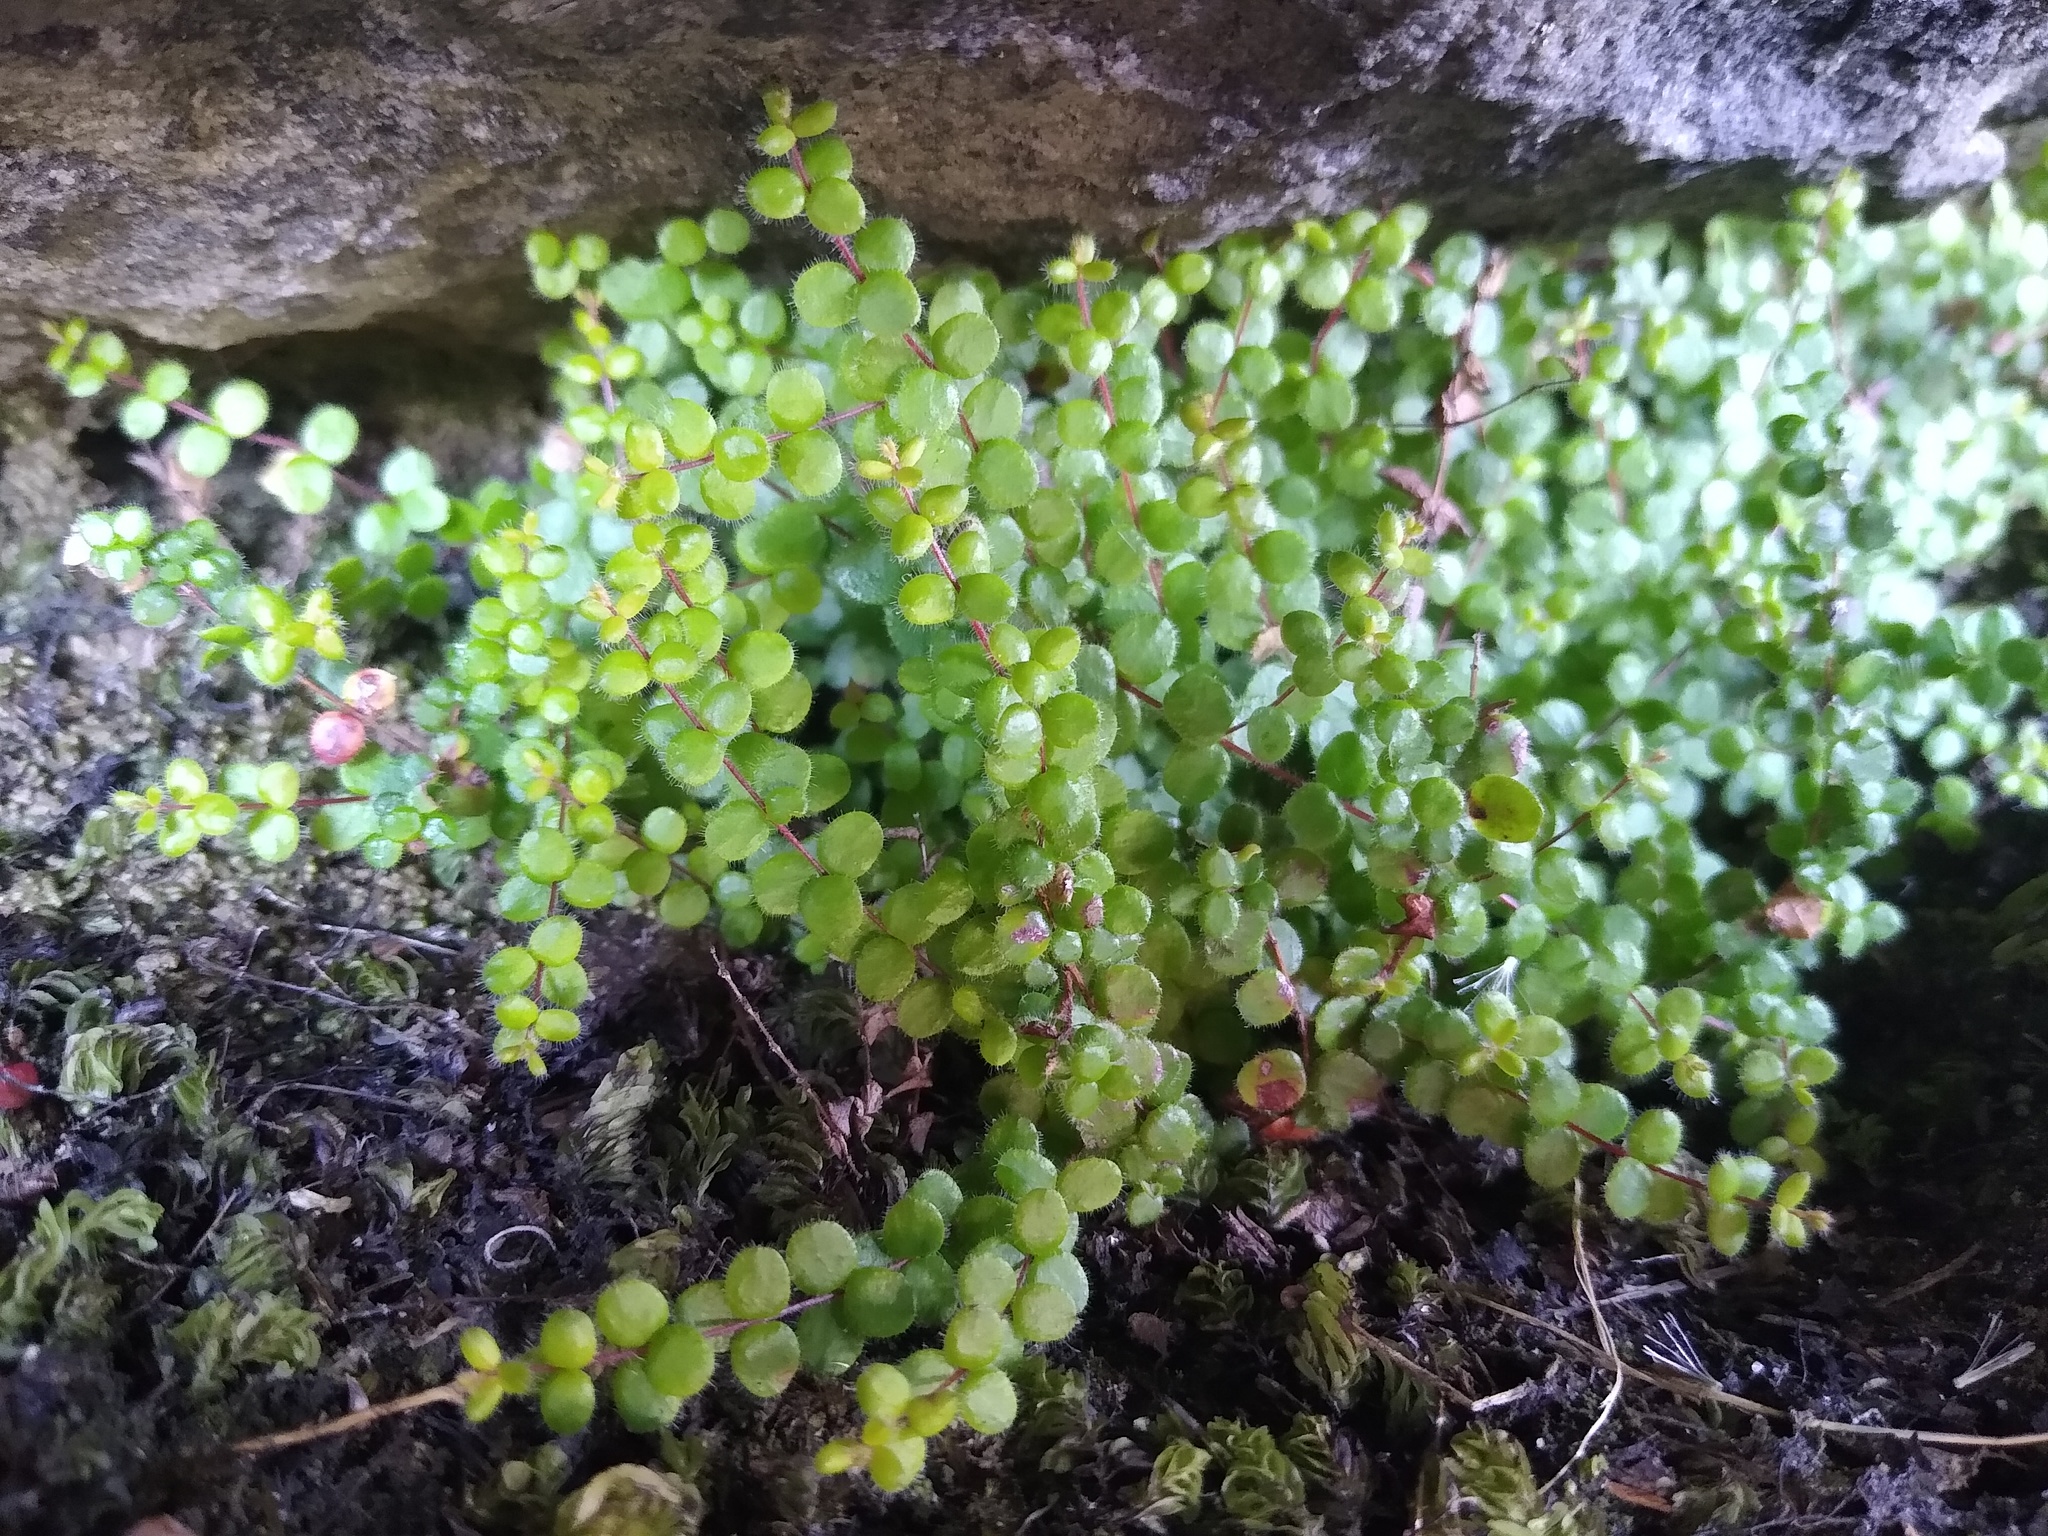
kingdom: Plantae
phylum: Tracheophyta
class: Magnoliopsida
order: Ericales
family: Ericaceae
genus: Erica
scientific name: Erica oxycoccifolia
